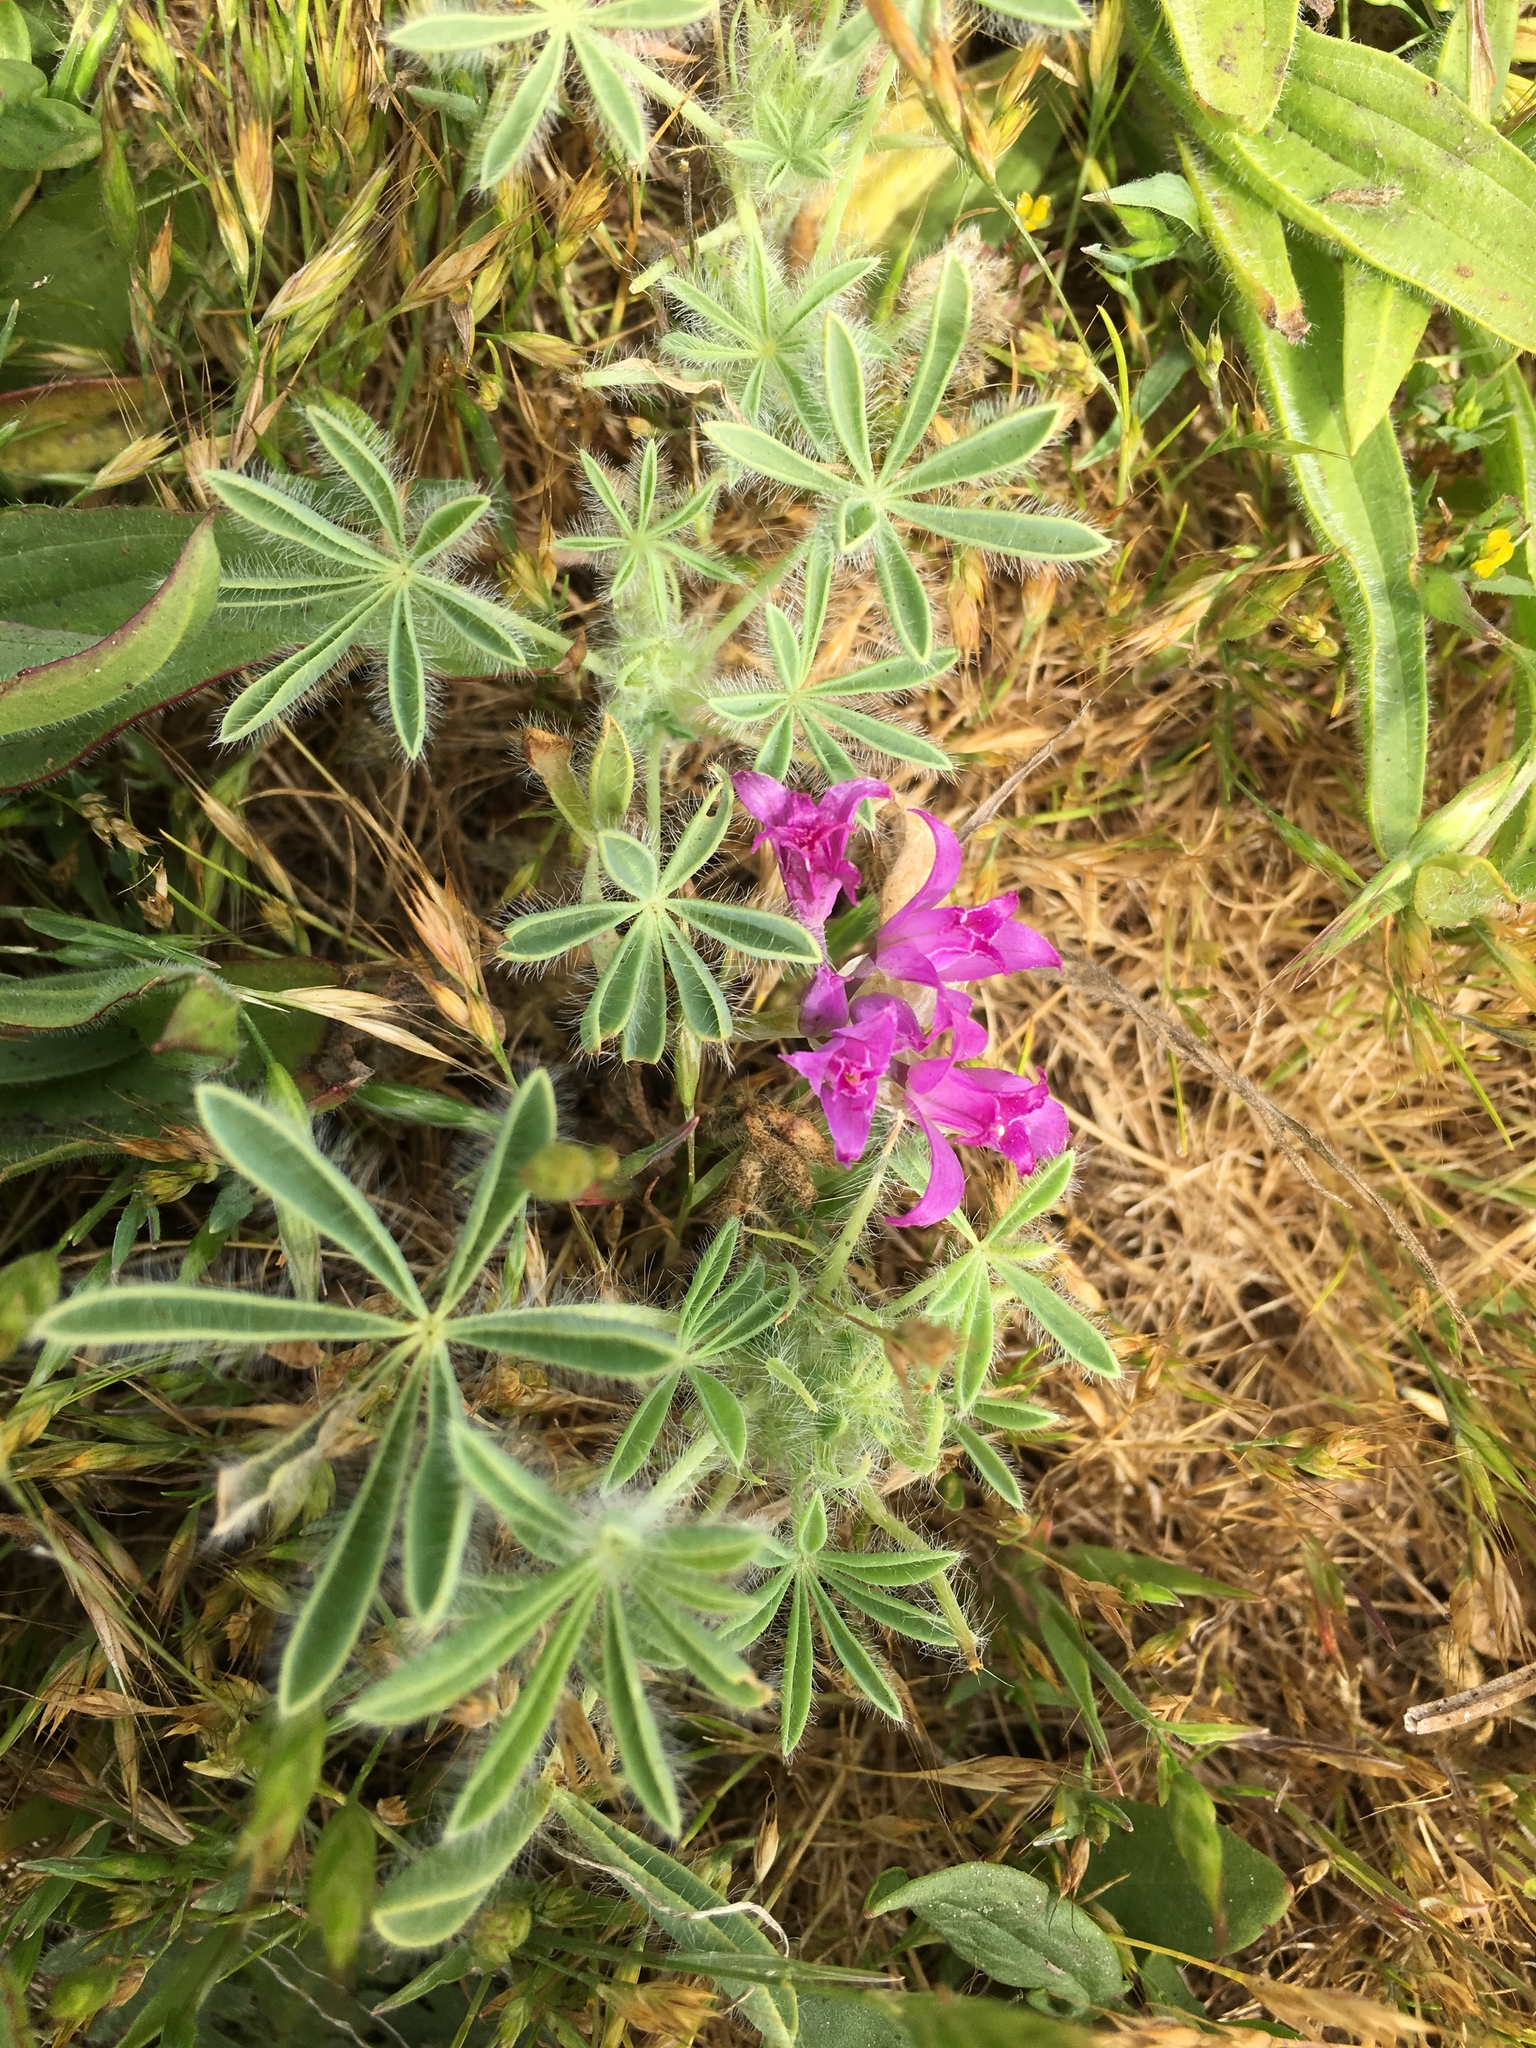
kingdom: Plantae
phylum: Tracheophyta
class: Liliopsida
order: Asparagales
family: Amaryllidaceae
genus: Allium
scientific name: Allium acuminatum
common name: Hooker's onion
